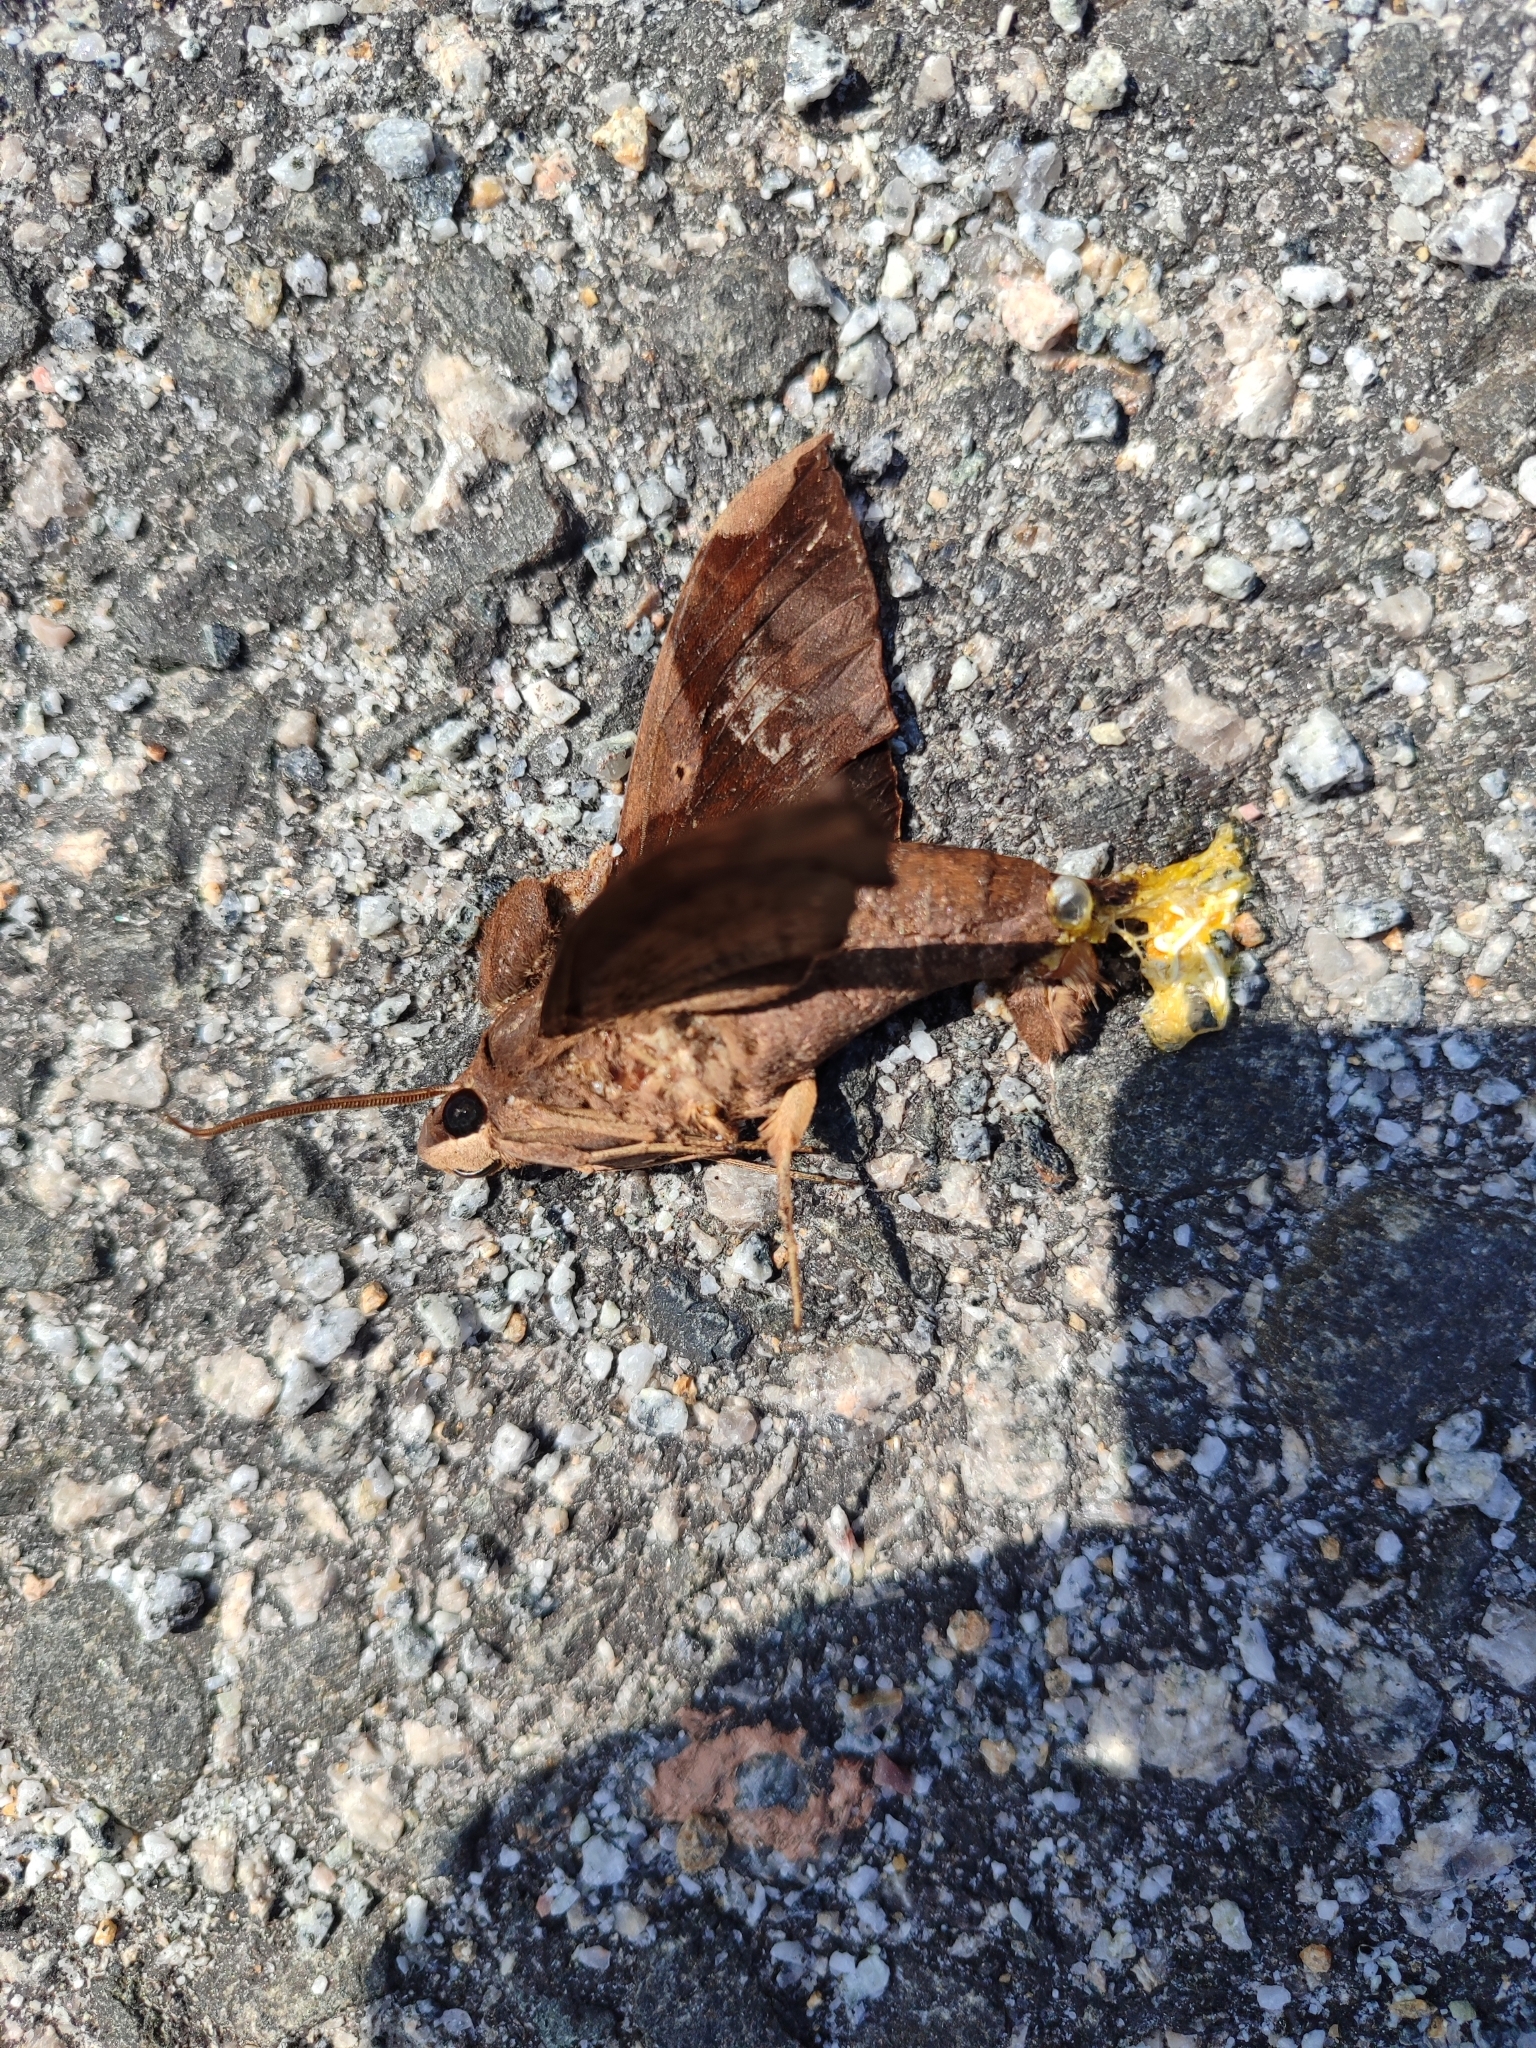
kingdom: Animalia
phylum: Arthropoda
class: Insecta
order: Lepidoptera
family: Sphingidae
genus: Pachylia
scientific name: Pachylia syces
